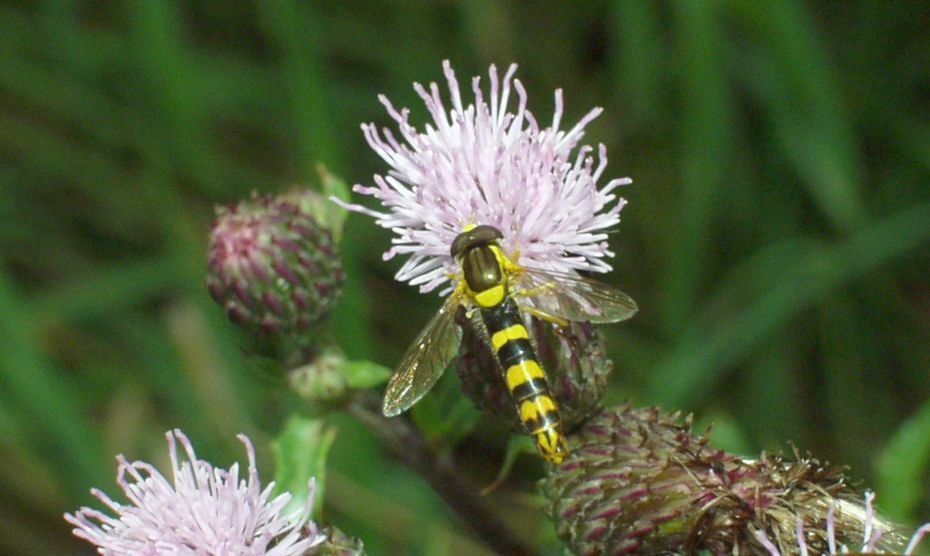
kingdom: Animalia
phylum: Arthropoda
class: Insecta
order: Diptera
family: Syrphidae
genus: Sphaerophoria
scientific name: Sphaerophoria scripta
